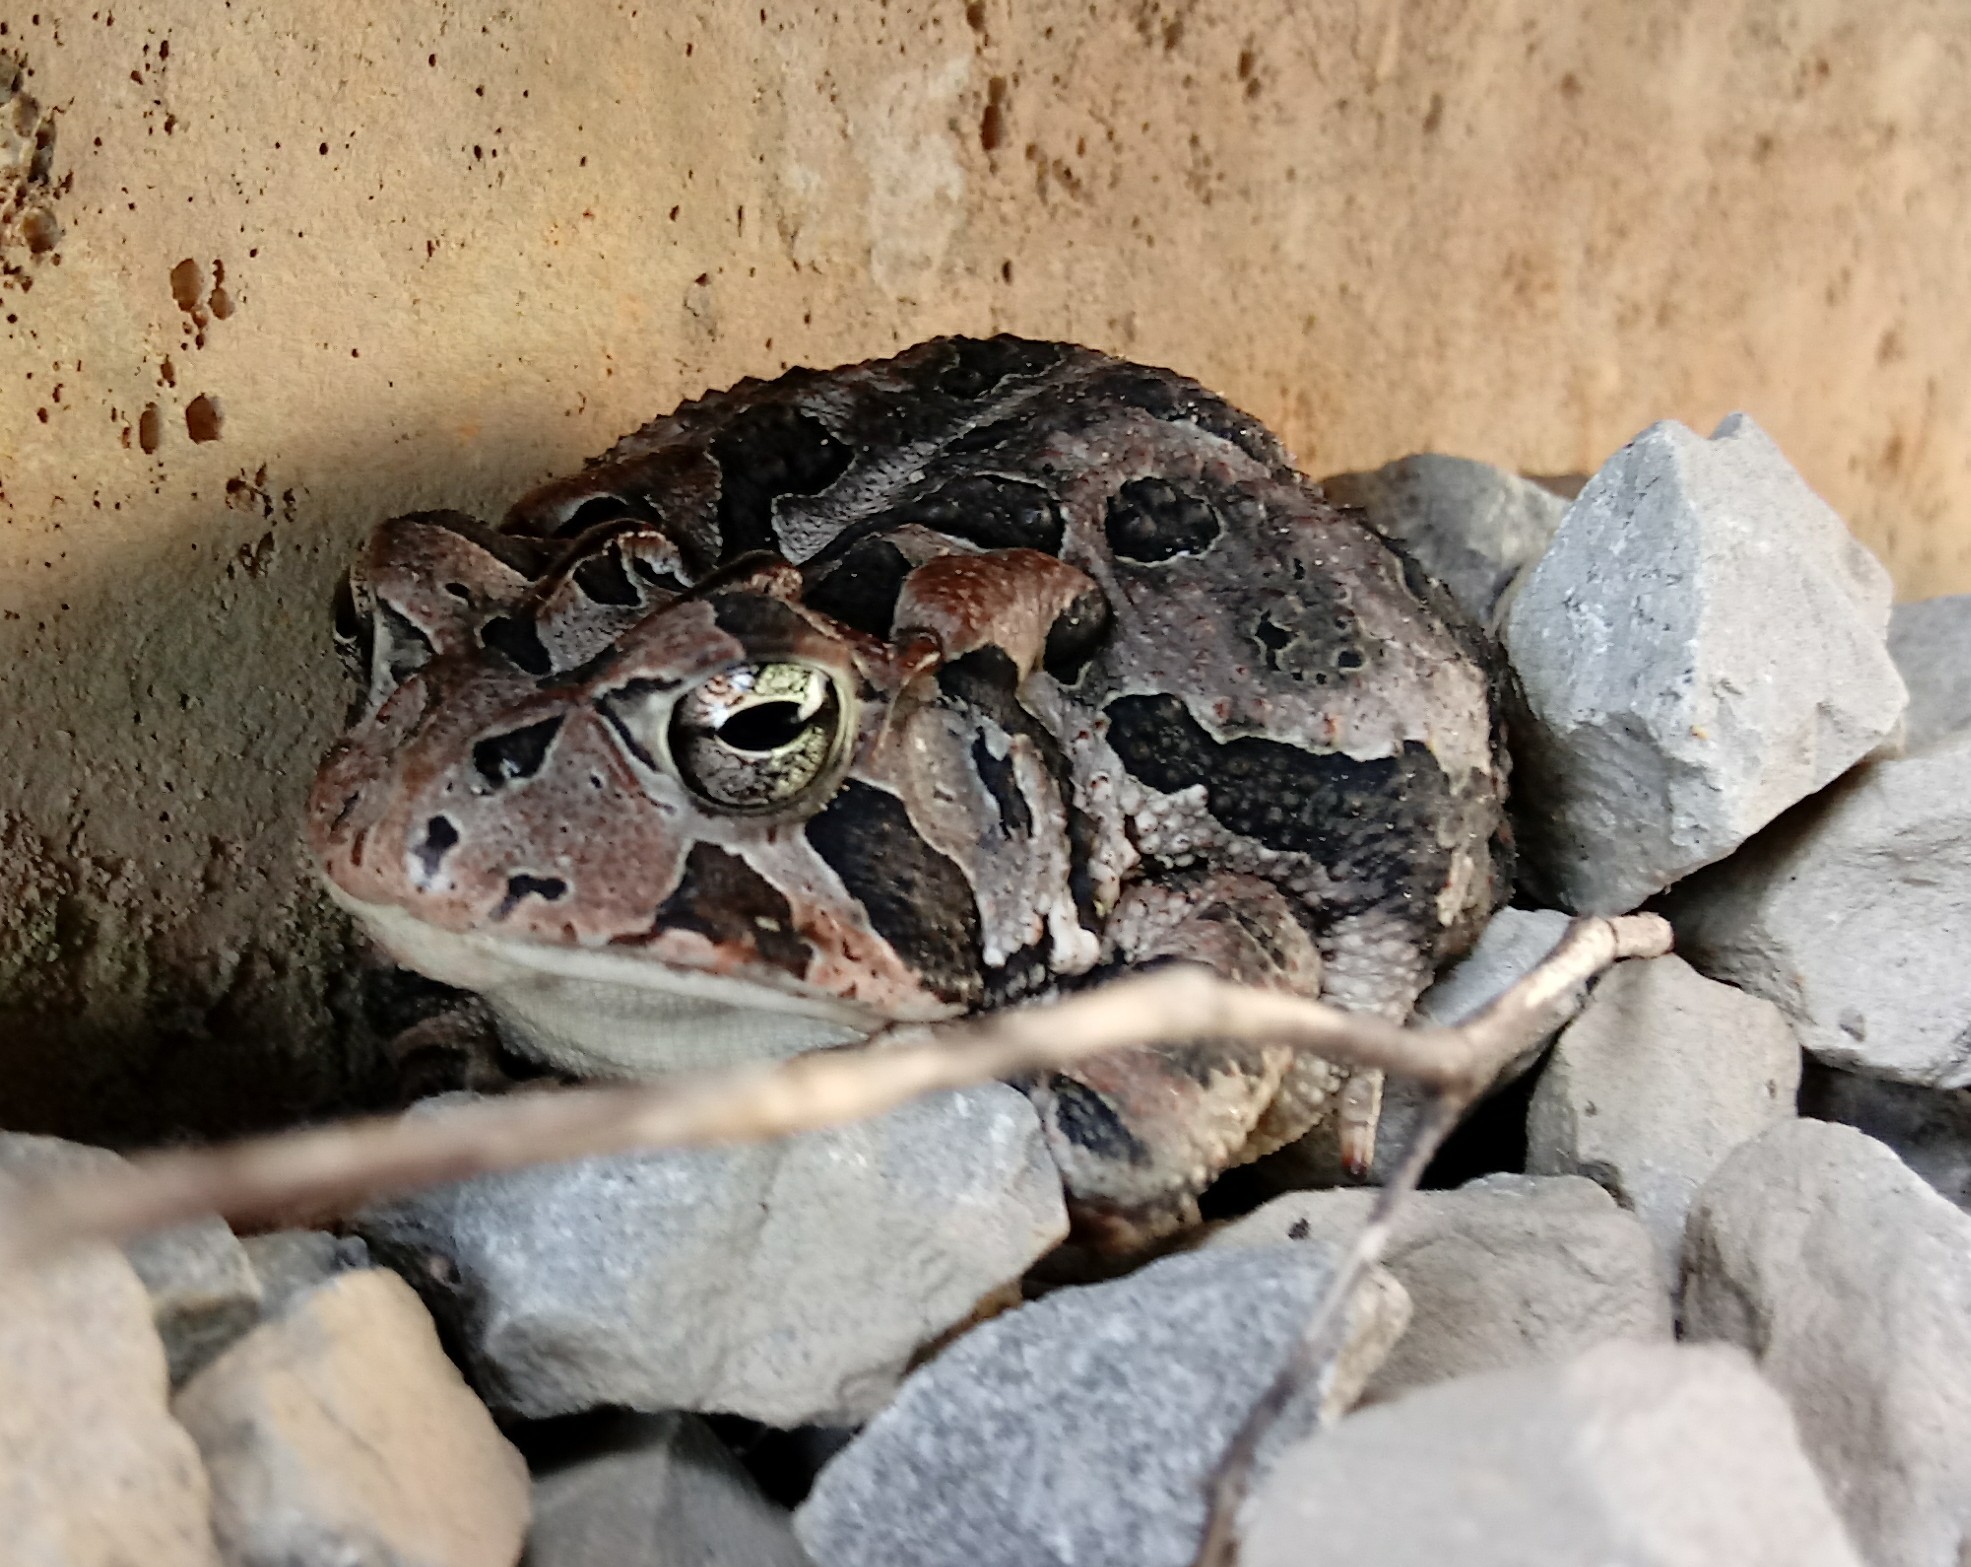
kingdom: Animalia
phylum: Chordata
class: Amphibia
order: Anura
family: Bufonidae
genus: Anaxyrus
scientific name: Anaxyrus terrestris
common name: Southern toad
